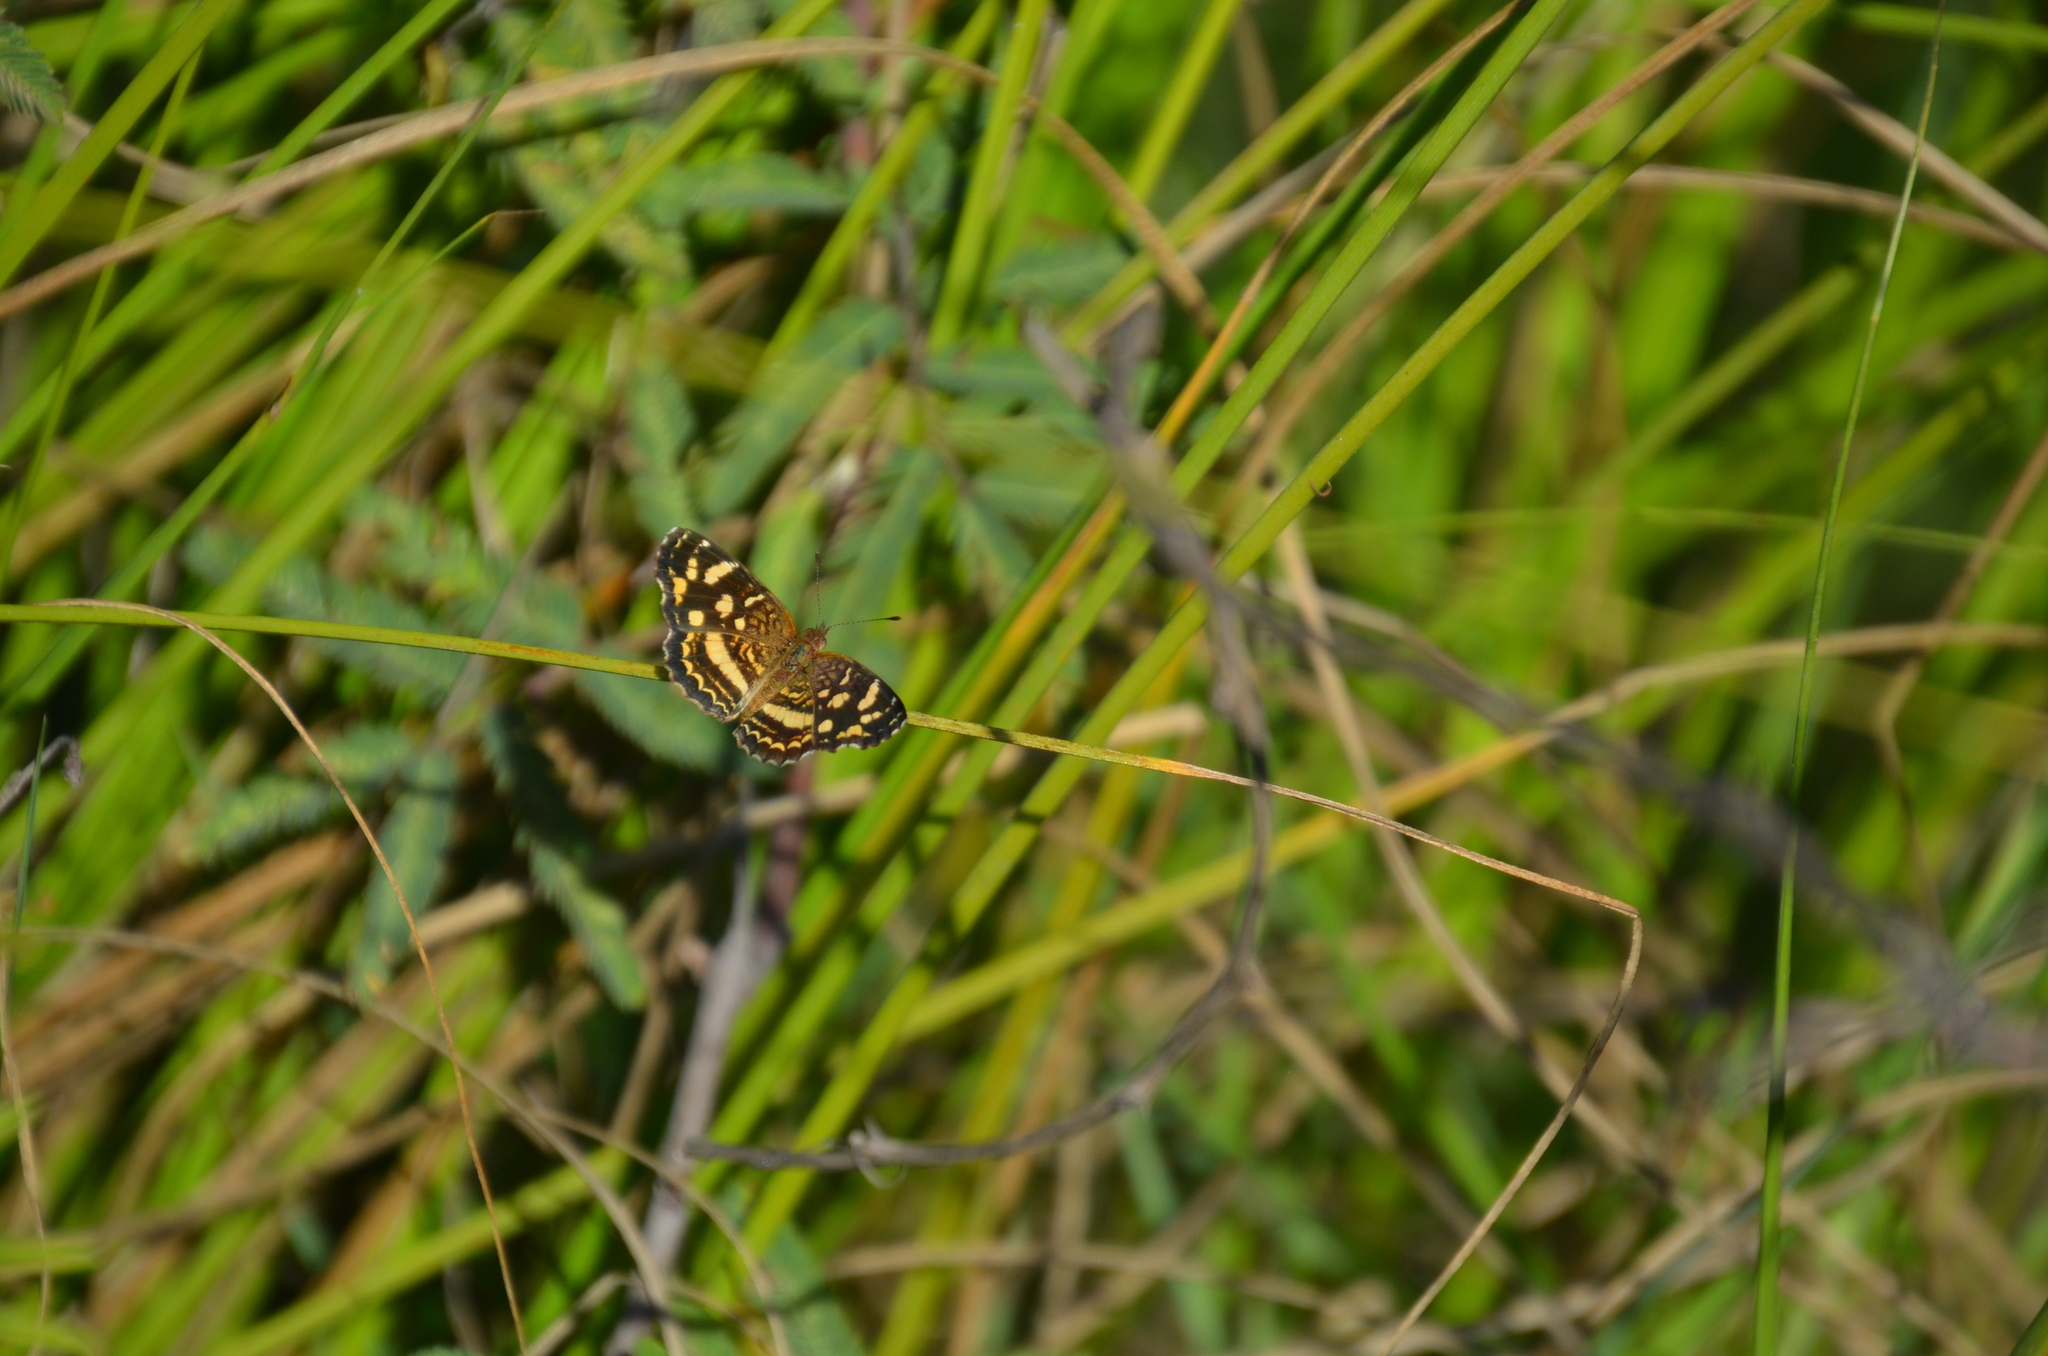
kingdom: Animalia
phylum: Arthropoda
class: Insecta
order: Lepidoptera
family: Nymphalidae
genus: Anthanassa
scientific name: Anthanassa tulcis
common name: Pale-banded crescent
